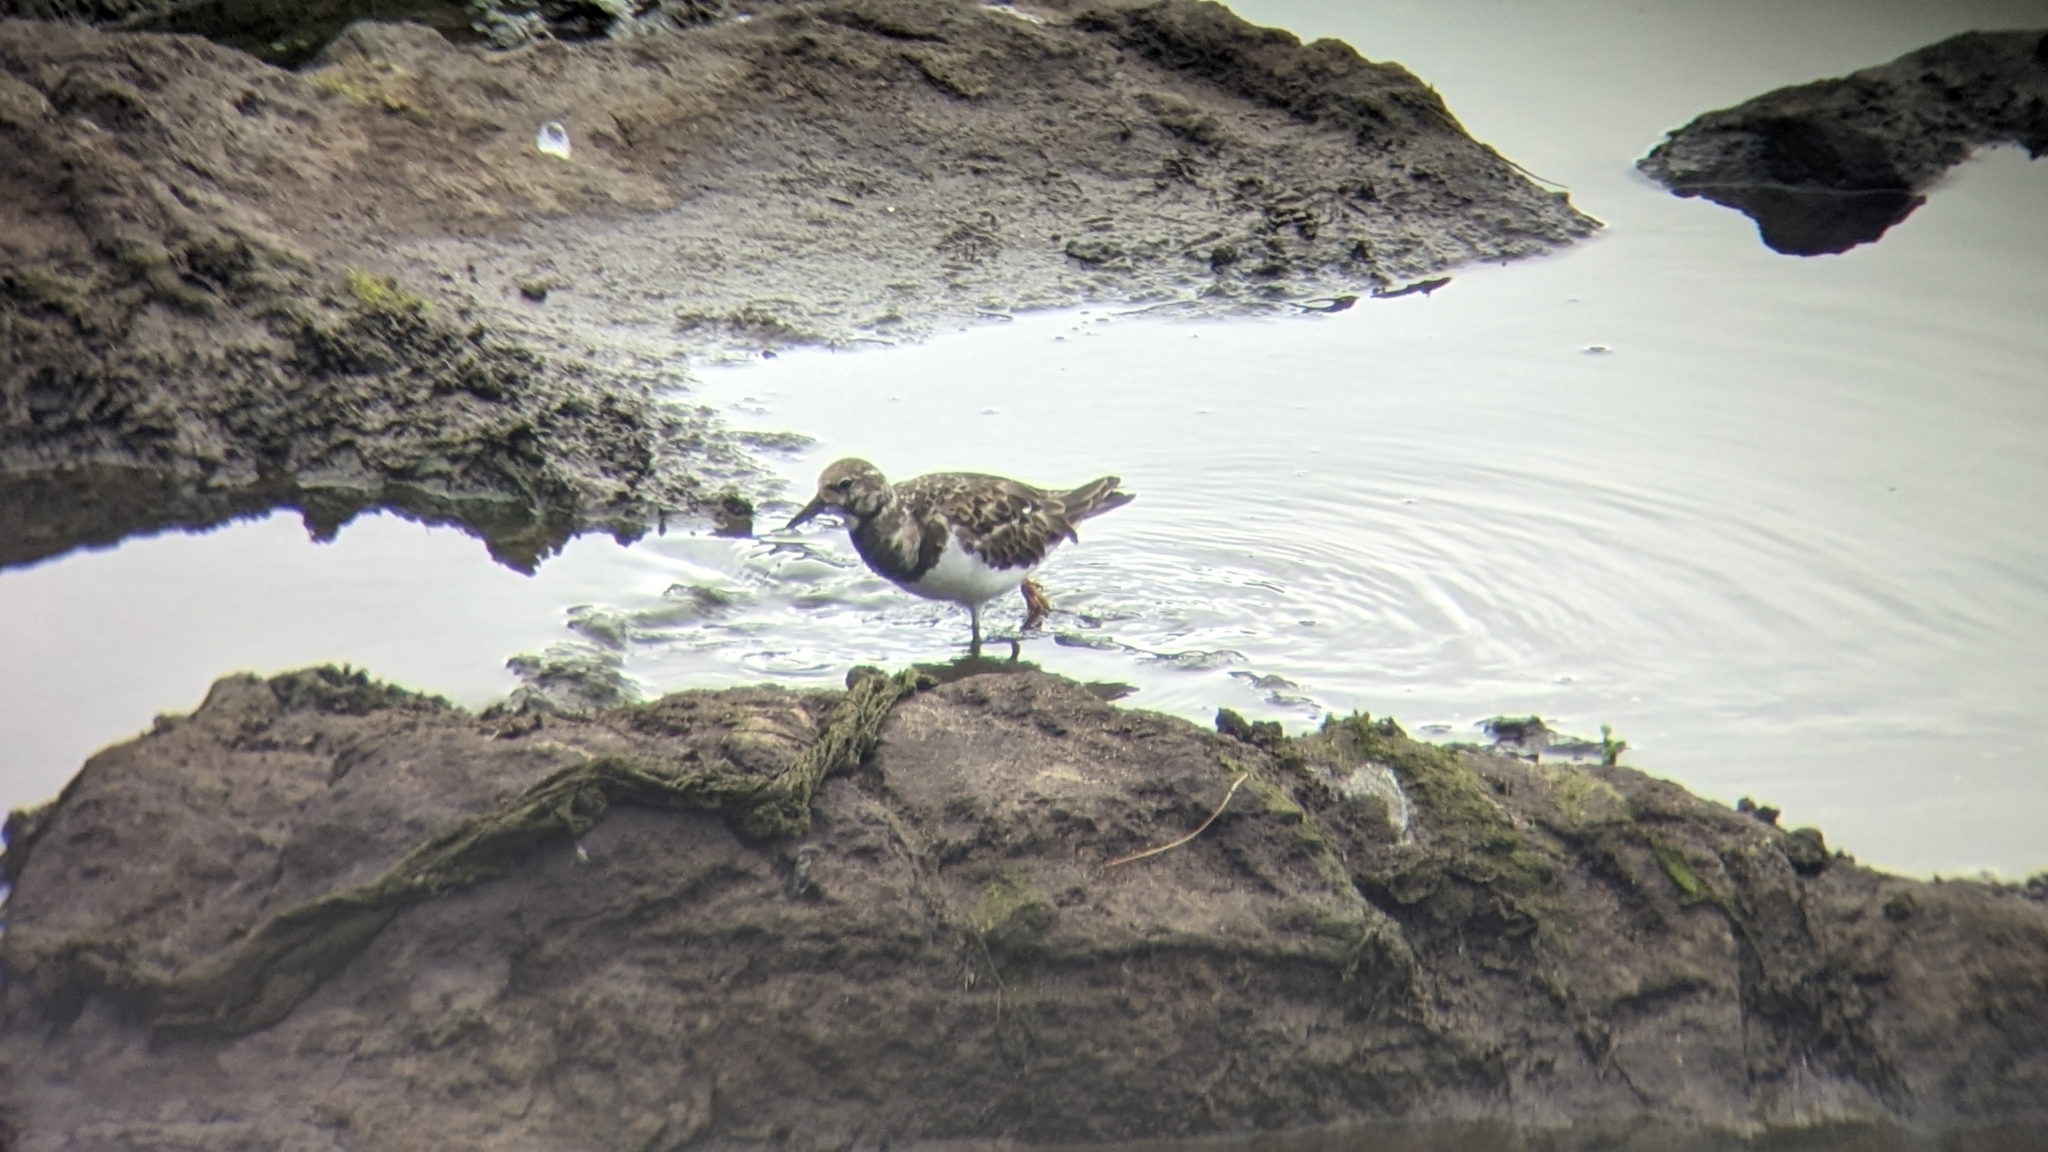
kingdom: Animalia
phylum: Chordata
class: Aves
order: Charadriiformes
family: Scolopacidae
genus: Arenaria
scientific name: Arenaria interpres
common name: Ruddy turnstone
